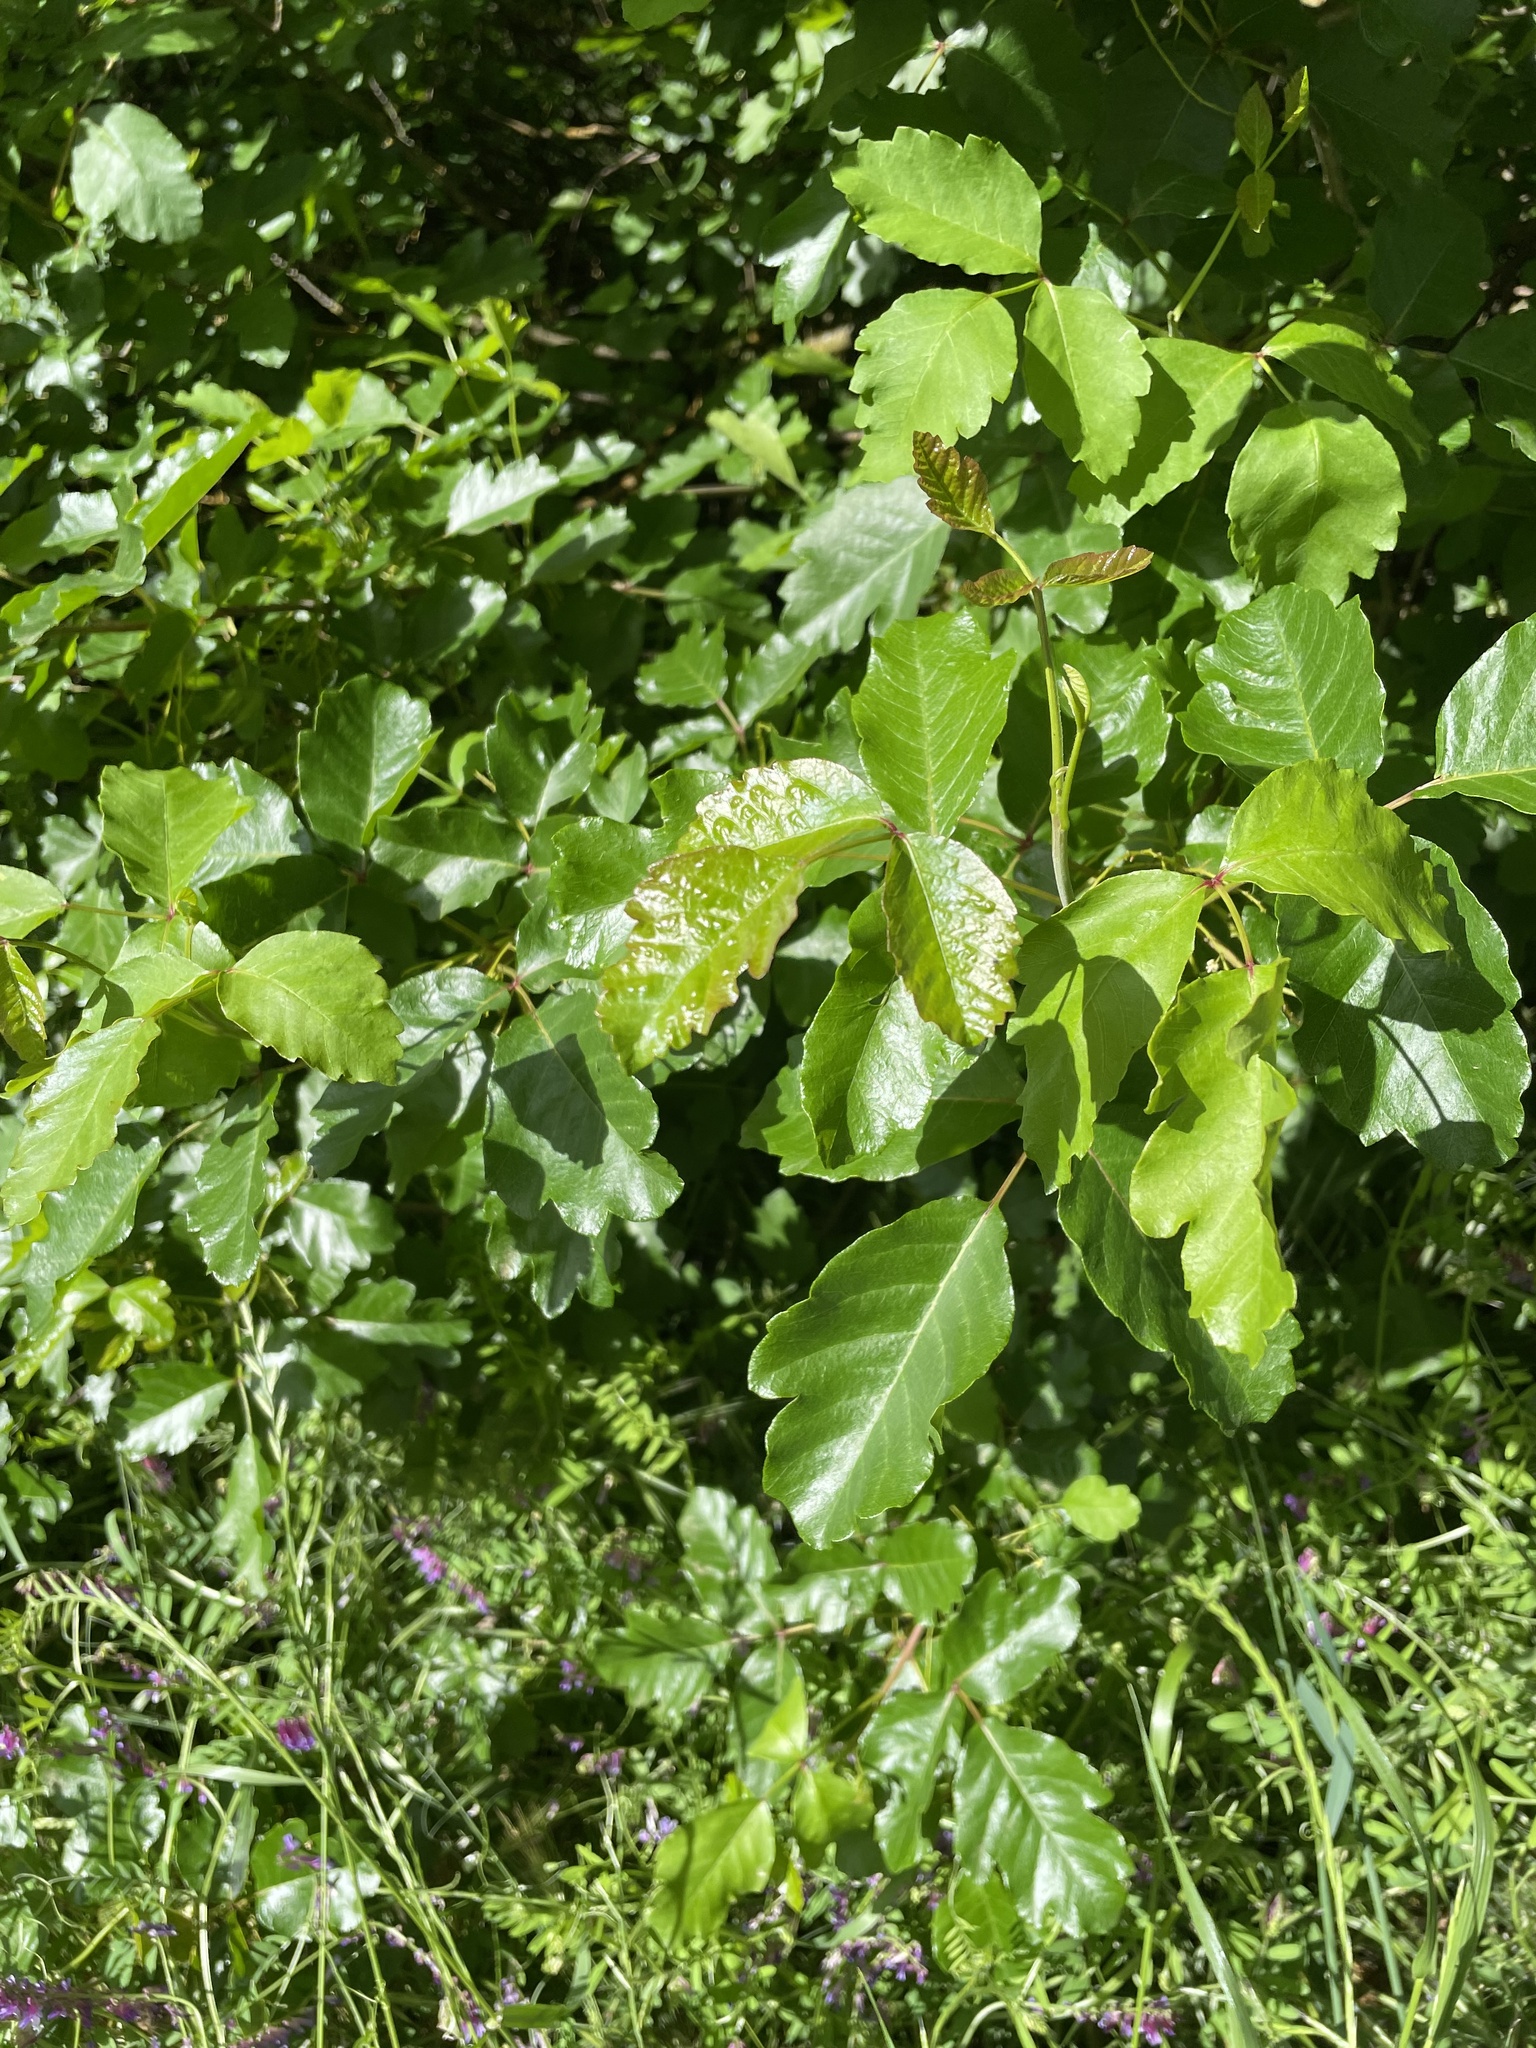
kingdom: Plantae
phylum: Tracheophyta
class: Magnoliopsida
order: Sapindales
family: Anacardiaceae
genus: Toxicodendron
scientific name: Toxicodendron diversilobum
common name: Pacific poison-oak
